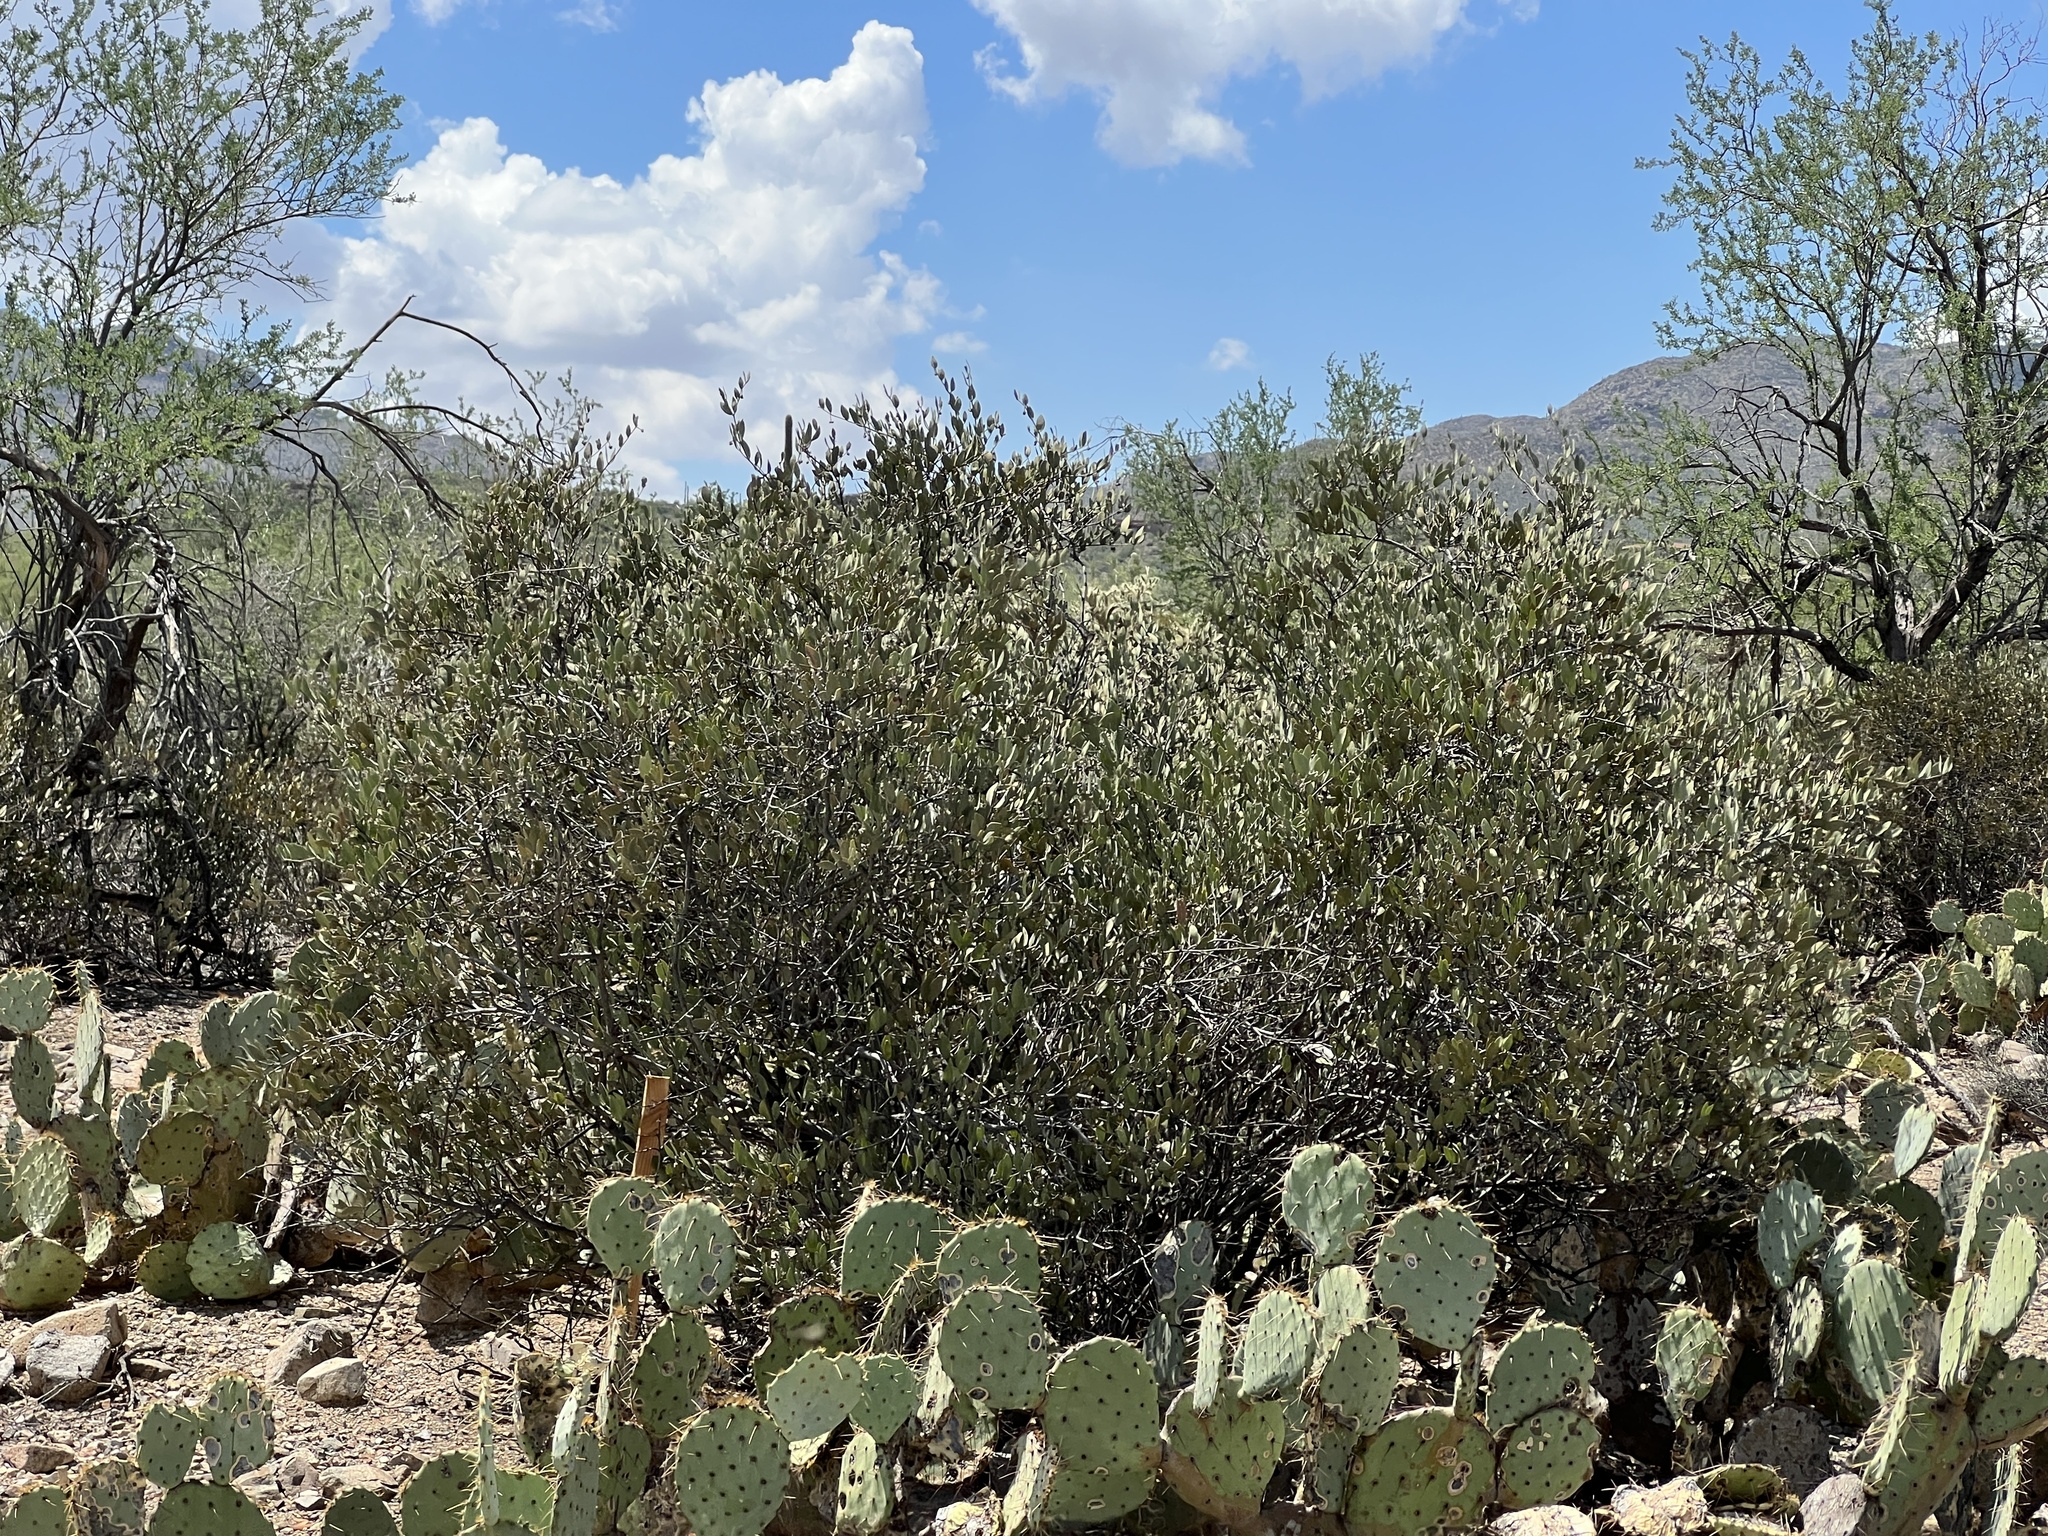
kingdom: Plantae
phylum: Tracheophyta
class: Magnoliopsida
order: Caryophyllales
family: Simmondsiaceae
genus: Simmondsia
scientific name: Simmondsia chinensis
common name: Jojoba
